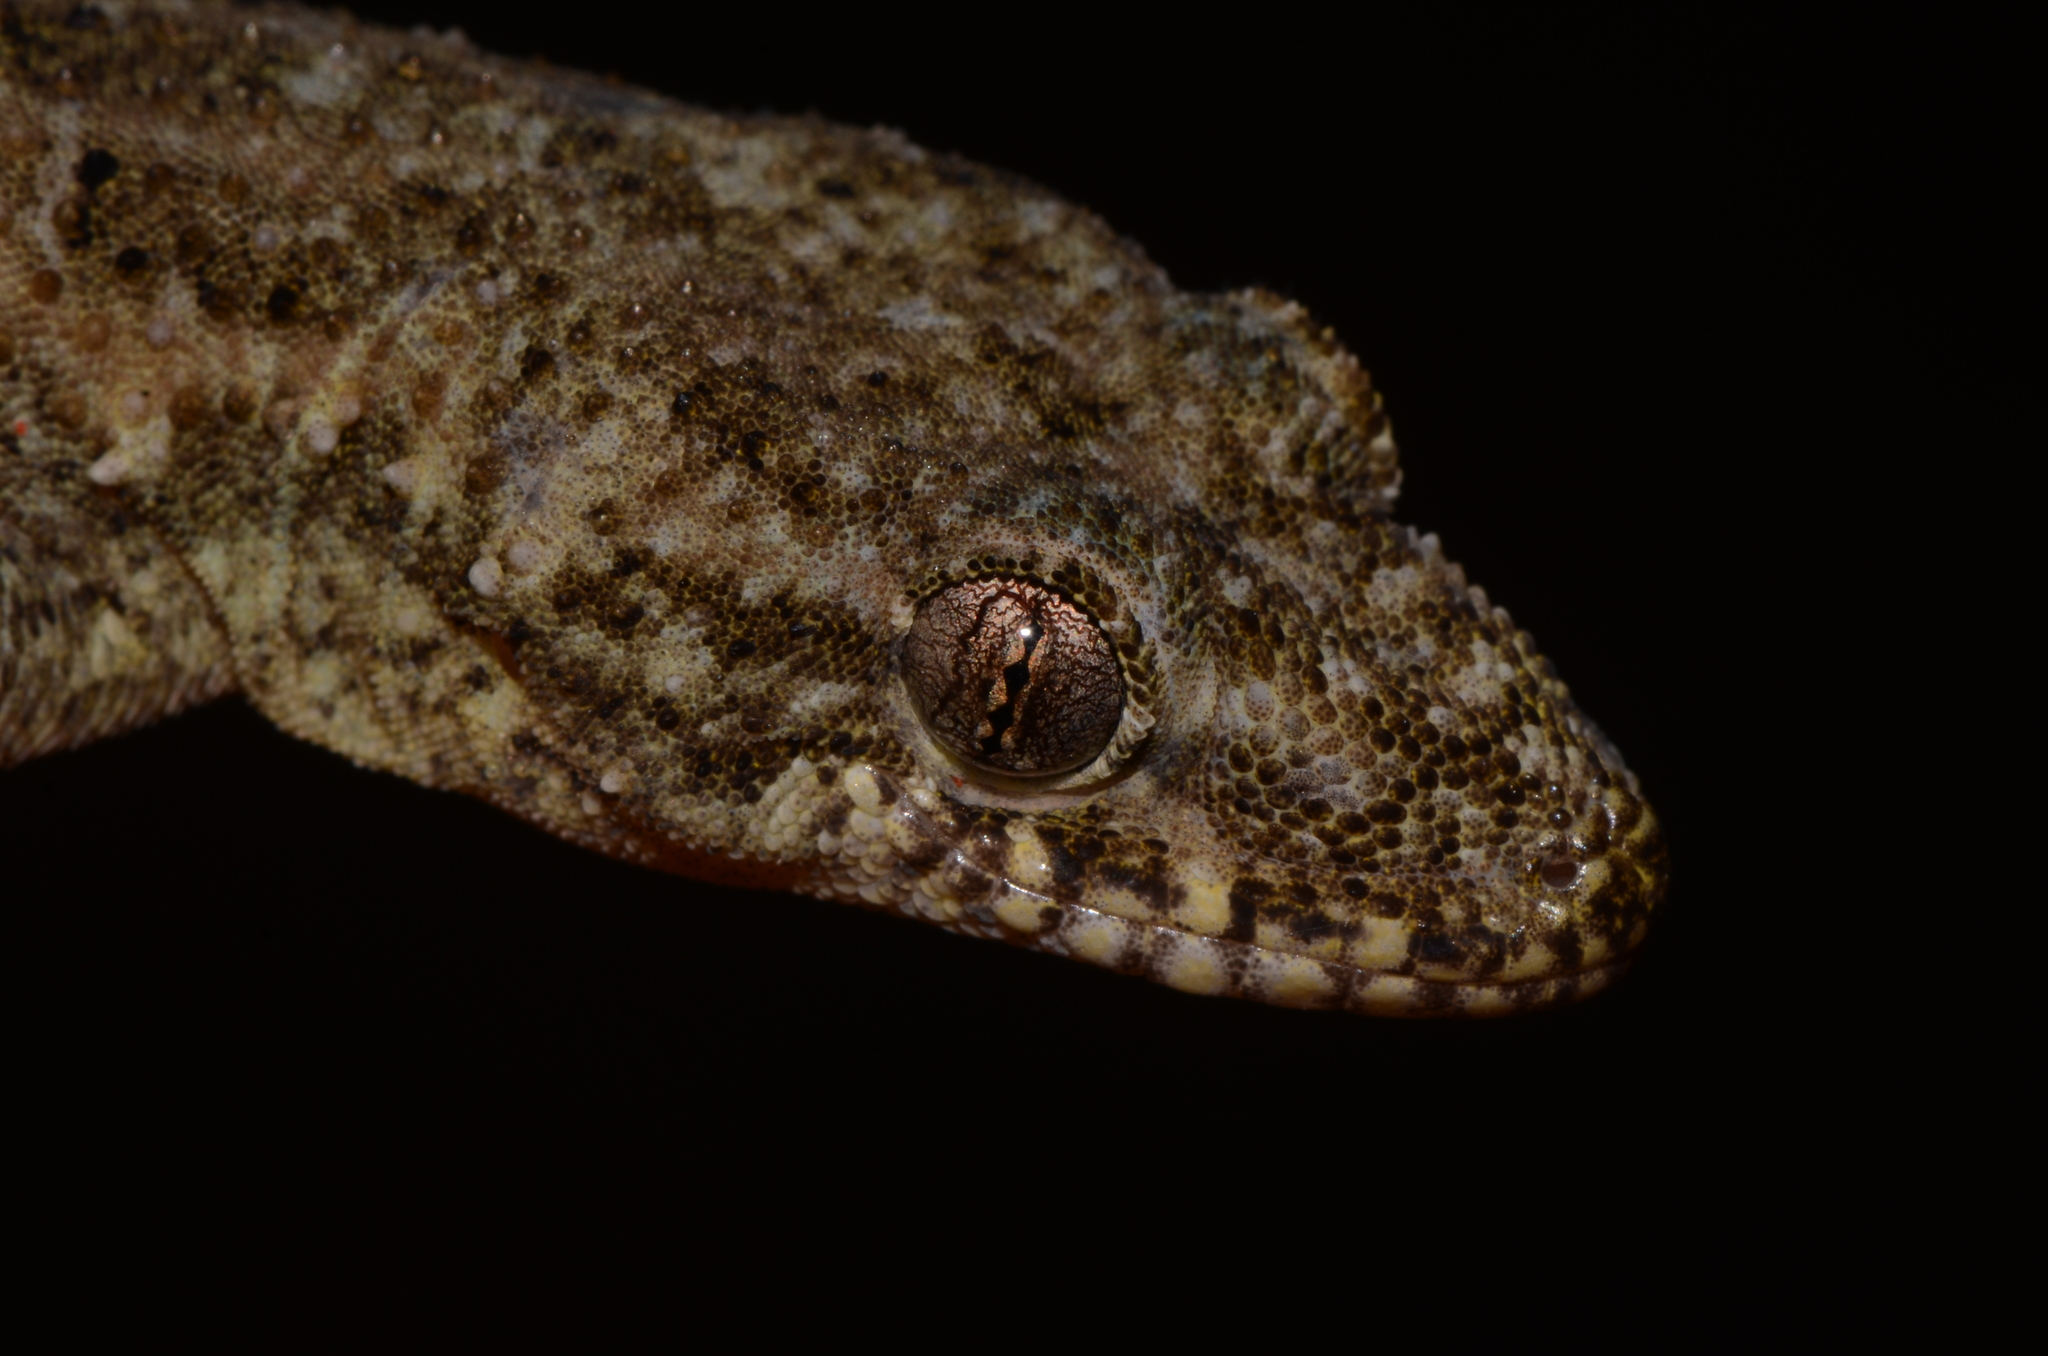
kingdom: Animalia
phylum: Chordata
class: Squamata
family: Gekkonidae
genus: Hemidactylus
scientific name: Hemidactylus mabouia
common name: House gecko
